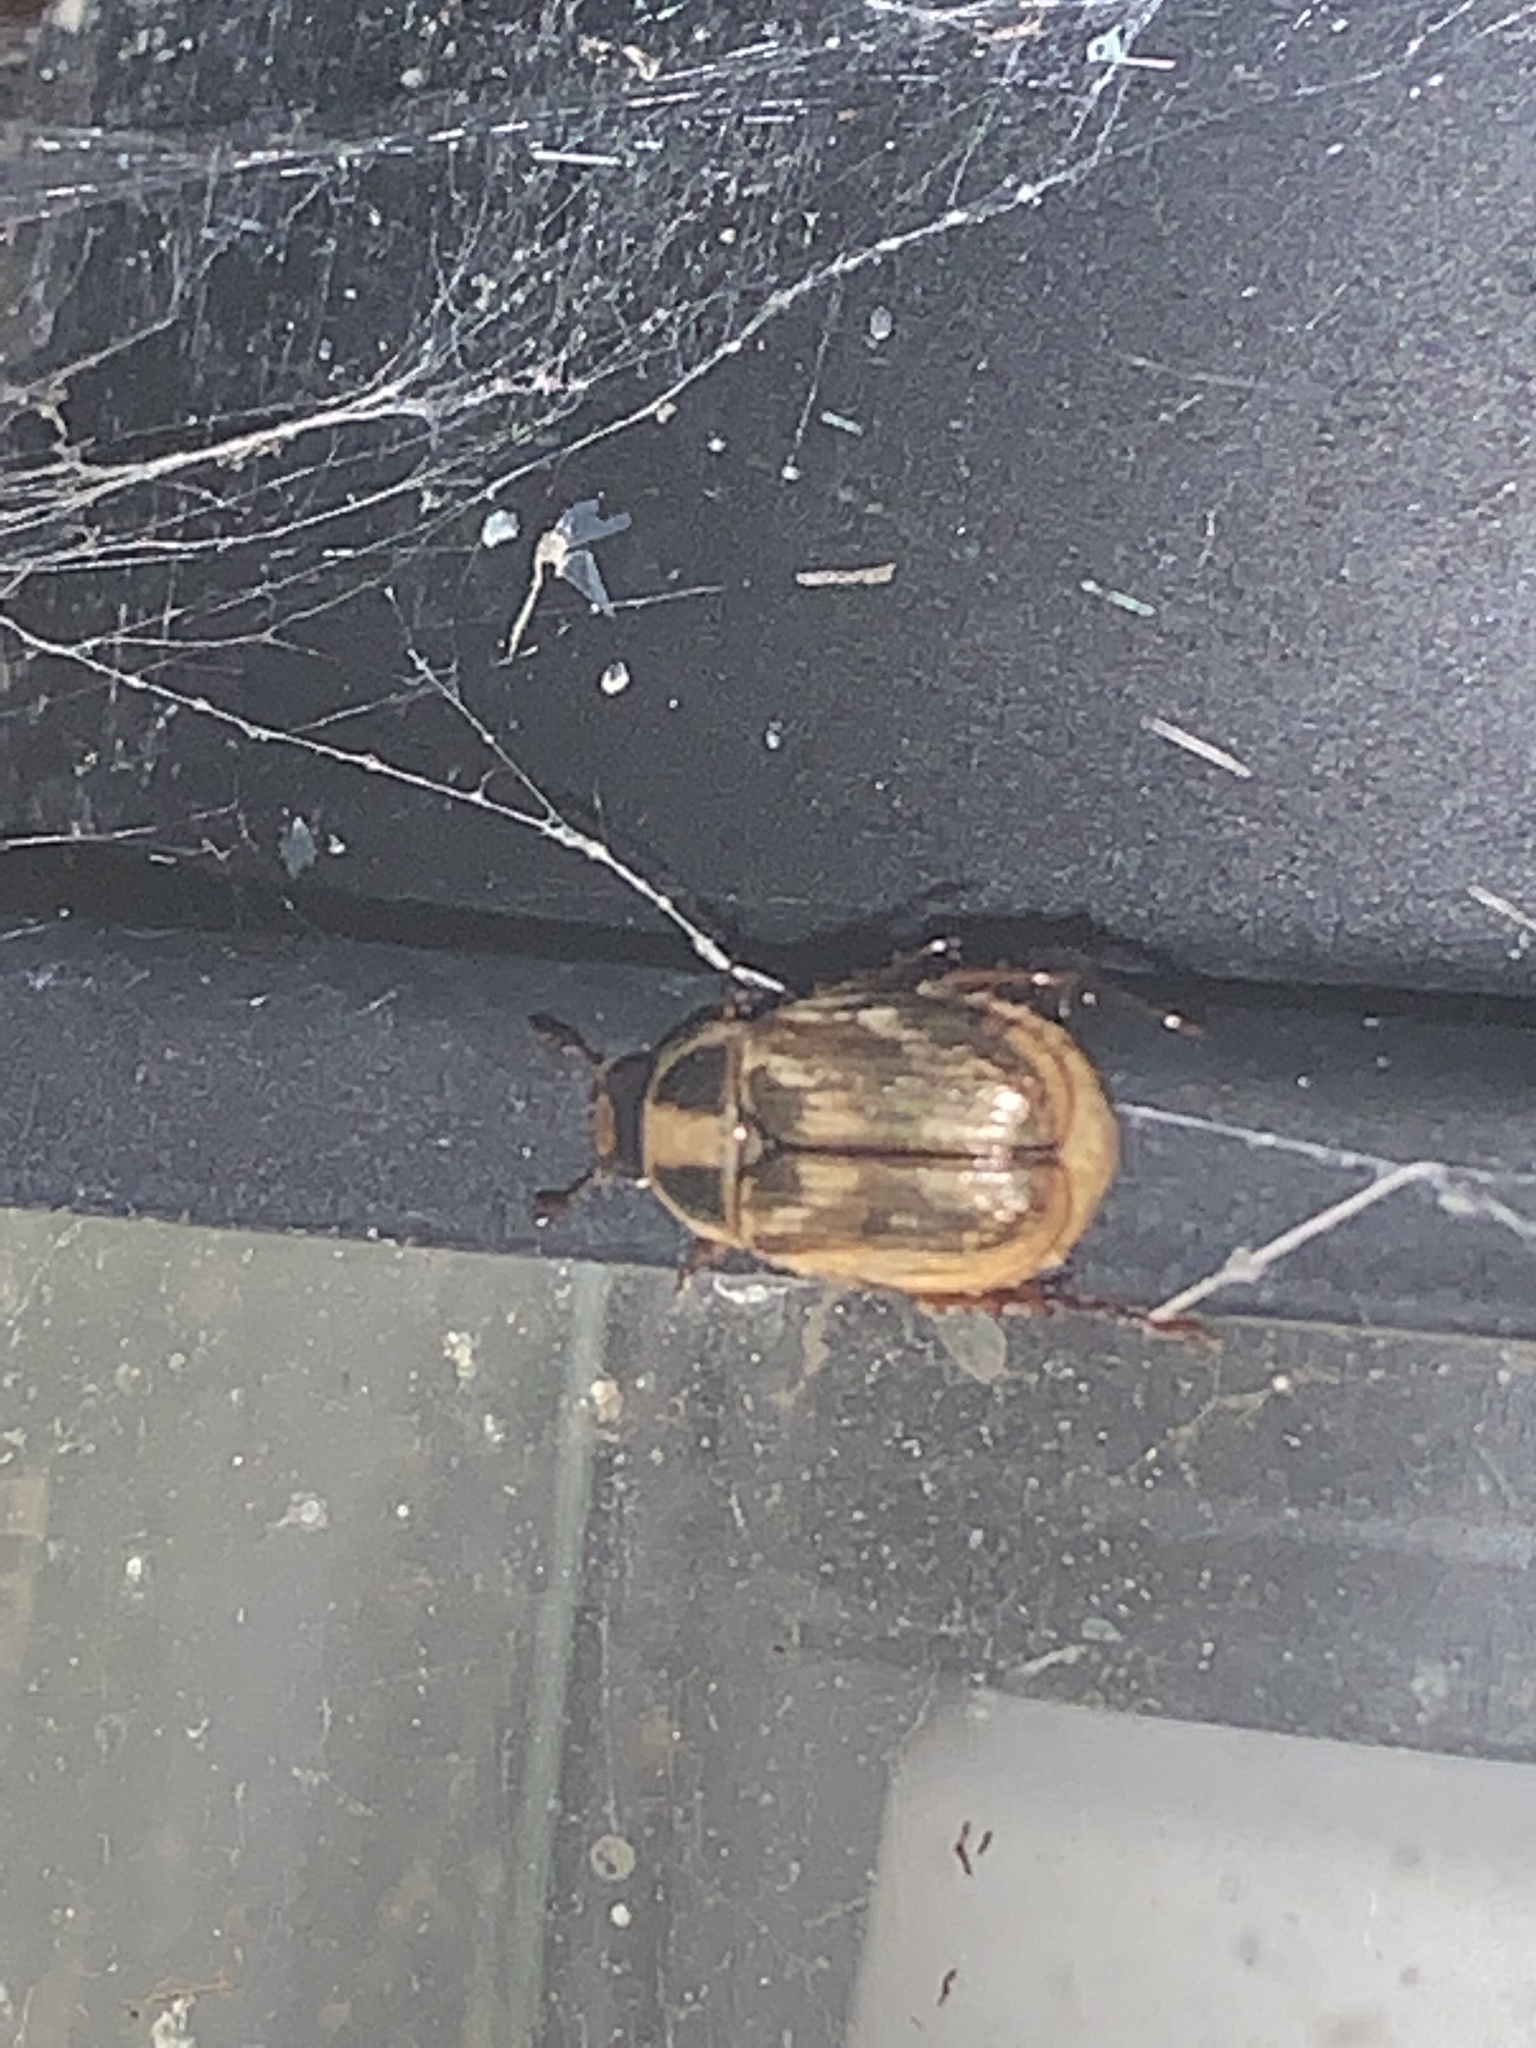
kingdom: Animalia
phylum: Arthropoda
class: Insecta
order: Coleoptera
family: Scarabaeidae
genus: Exomala
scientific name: Exomala orientalis
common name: Oriental beetle
